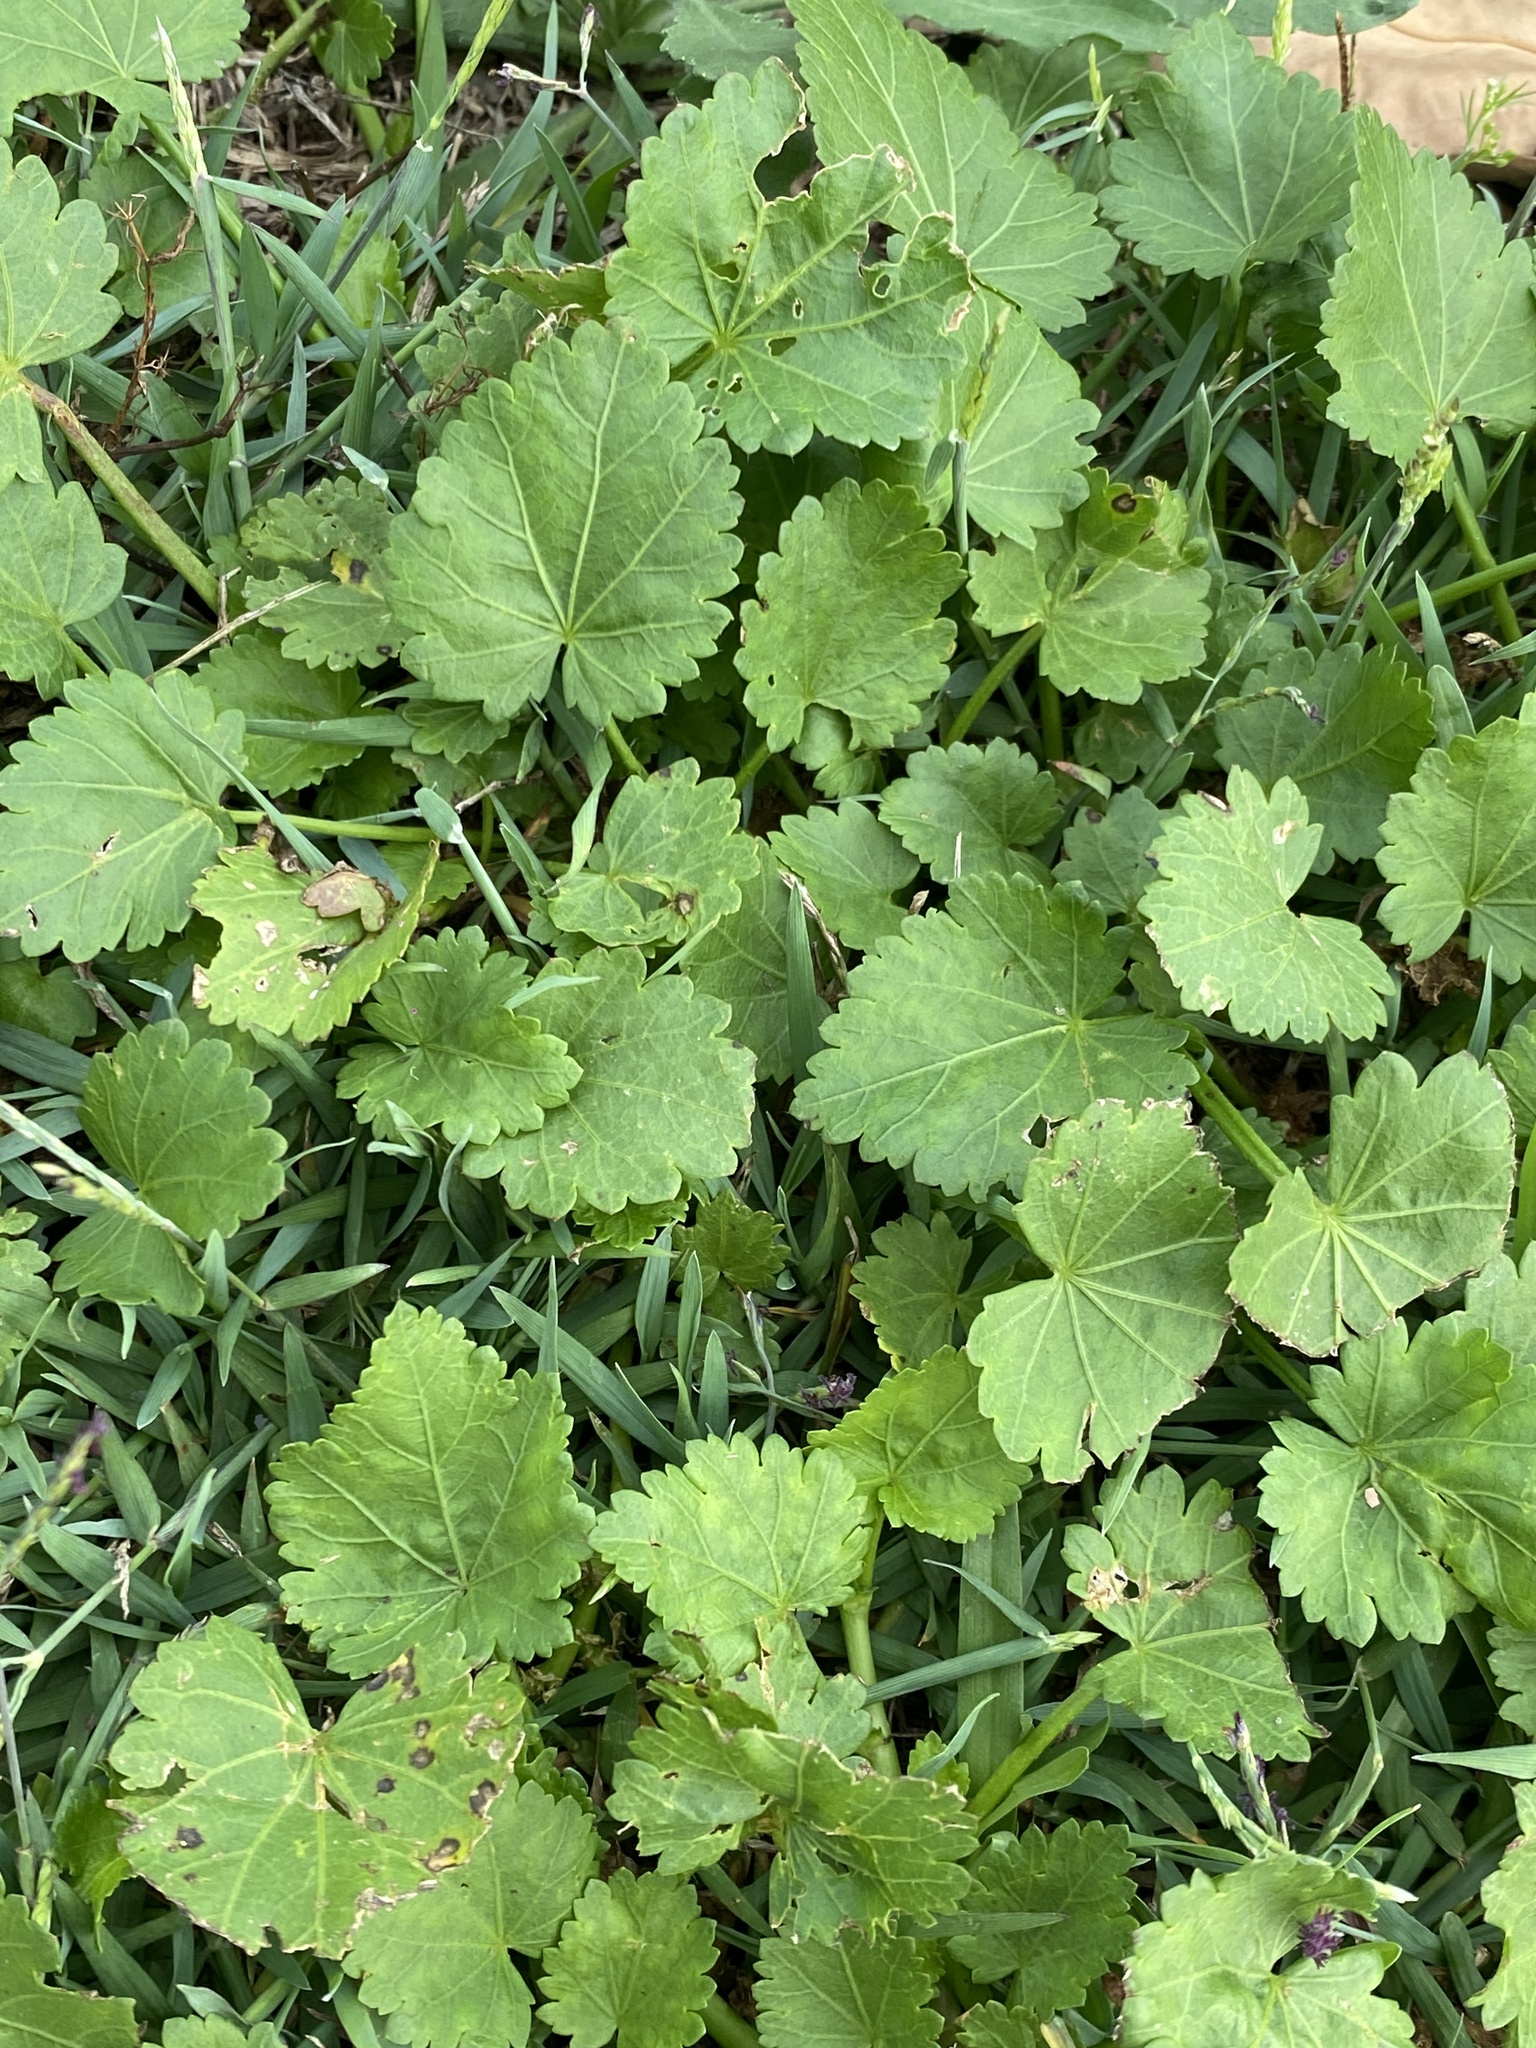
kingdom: Plantae
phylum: Tracheophyta
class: Magnoliopsida
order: Malvales
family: Malvaceae
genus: Modiola
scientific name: Modiola caroliniana
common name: Carolina bristlemallow
